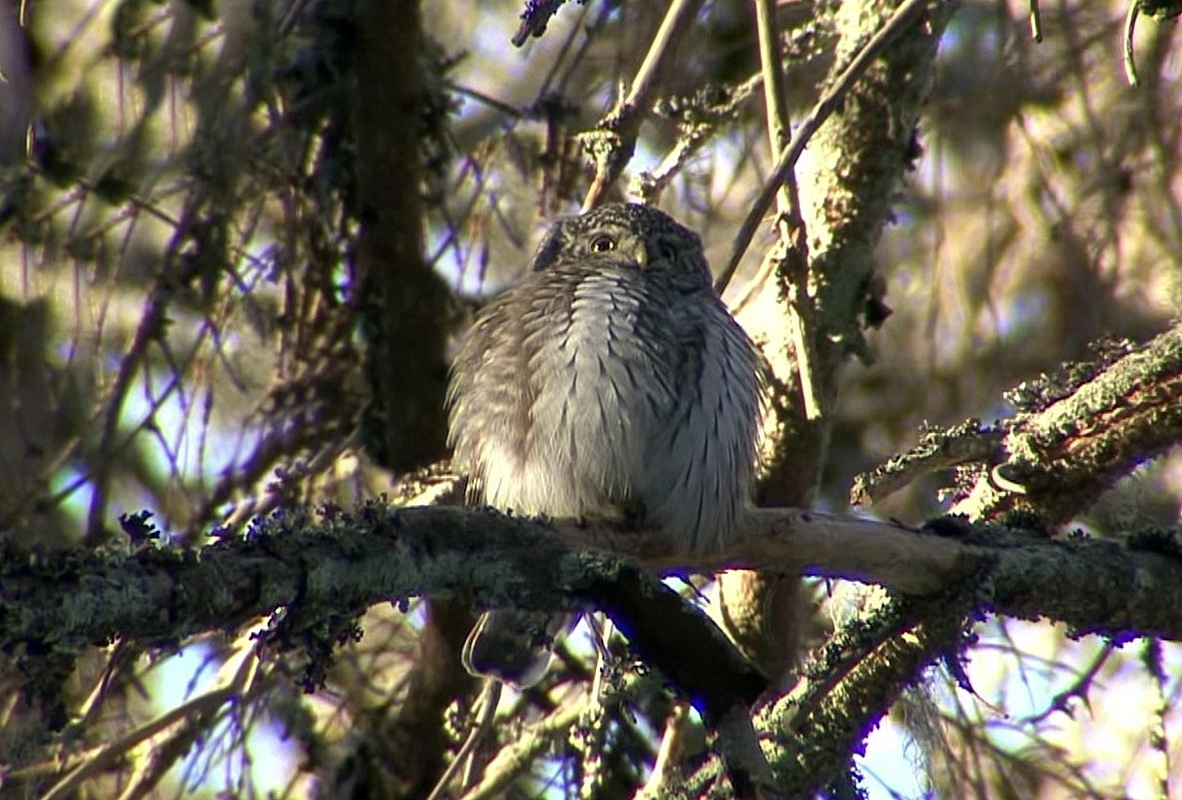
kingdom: Animalia
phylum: Chordata
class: Aves
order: Strigiformes
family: Strigidae
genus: Glaucidium
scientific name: Glaucidium passerinum
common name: Eurasian pygmy owl
